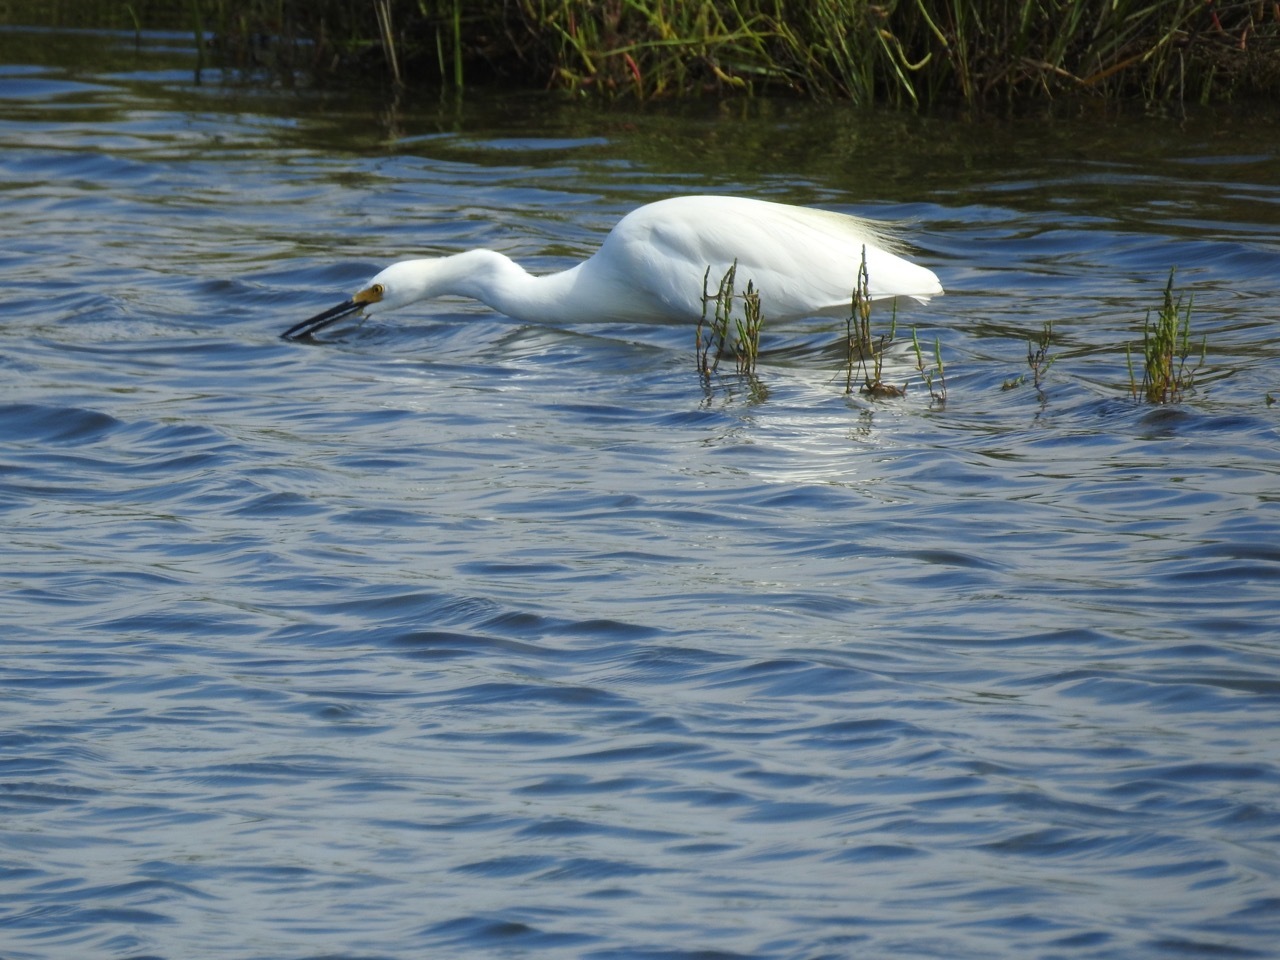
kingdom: Animalia
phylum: Chordata
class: Aves
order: Pelecaniformes
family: Ardeidae
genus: Egretta
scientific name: Egretta thula
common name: Snowy egret
